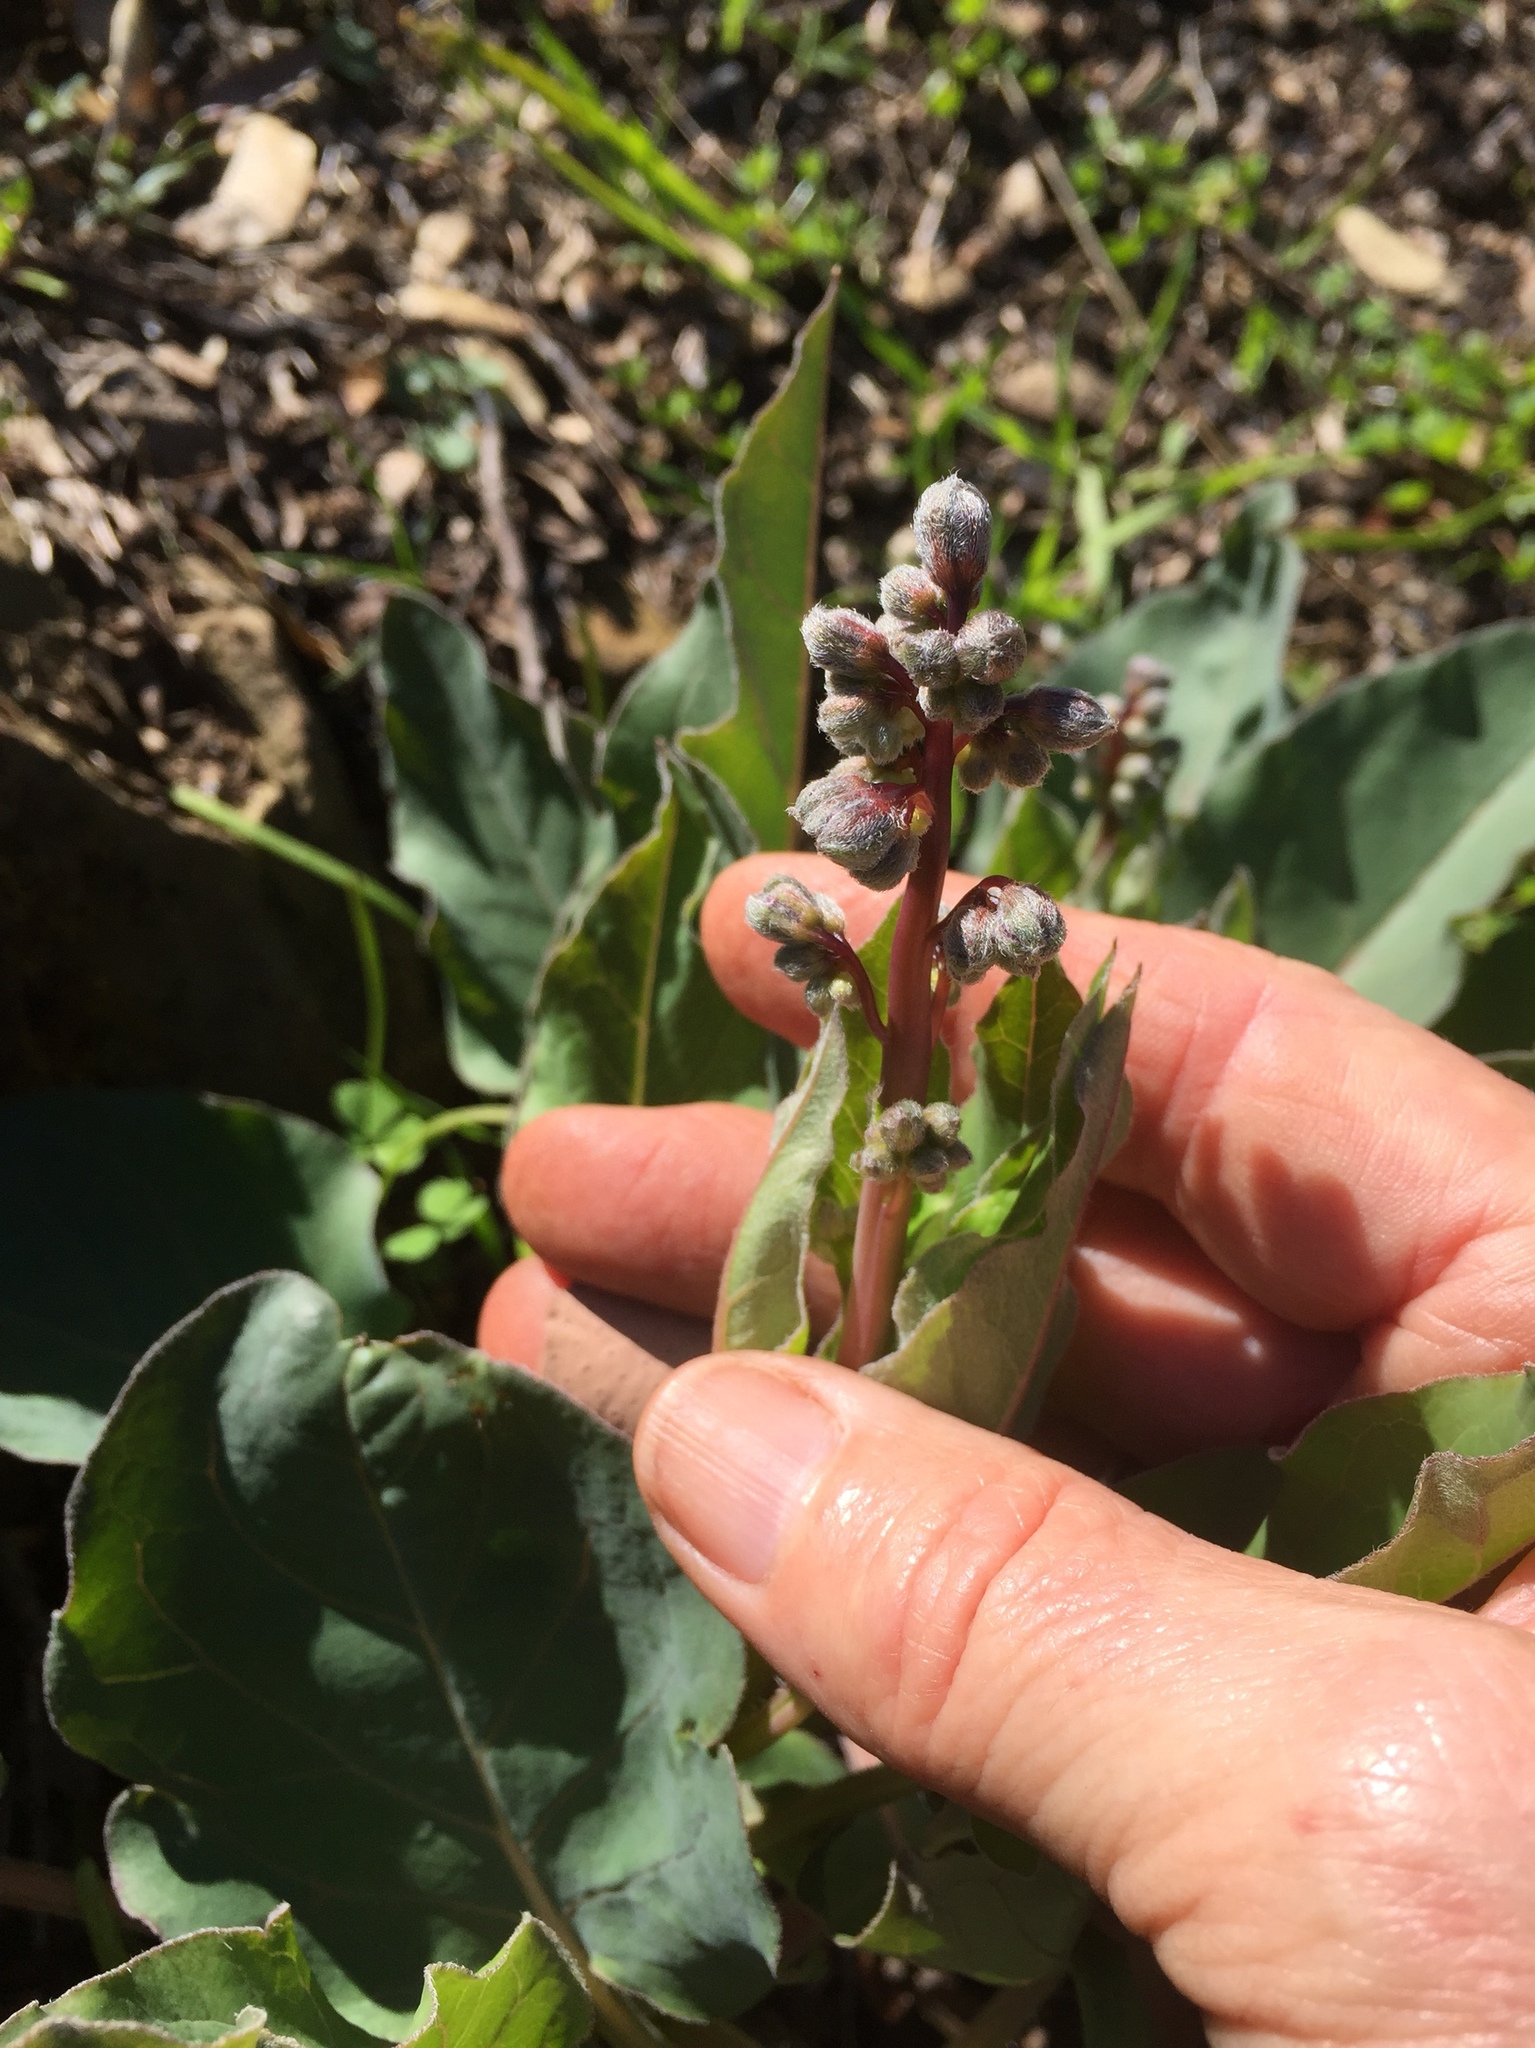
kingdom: Plantae
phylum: Tracheophyta
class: Magnoliopsida
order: Boraginales
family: Boraginaceae
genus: Adelinia
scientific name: Adelinia grande
